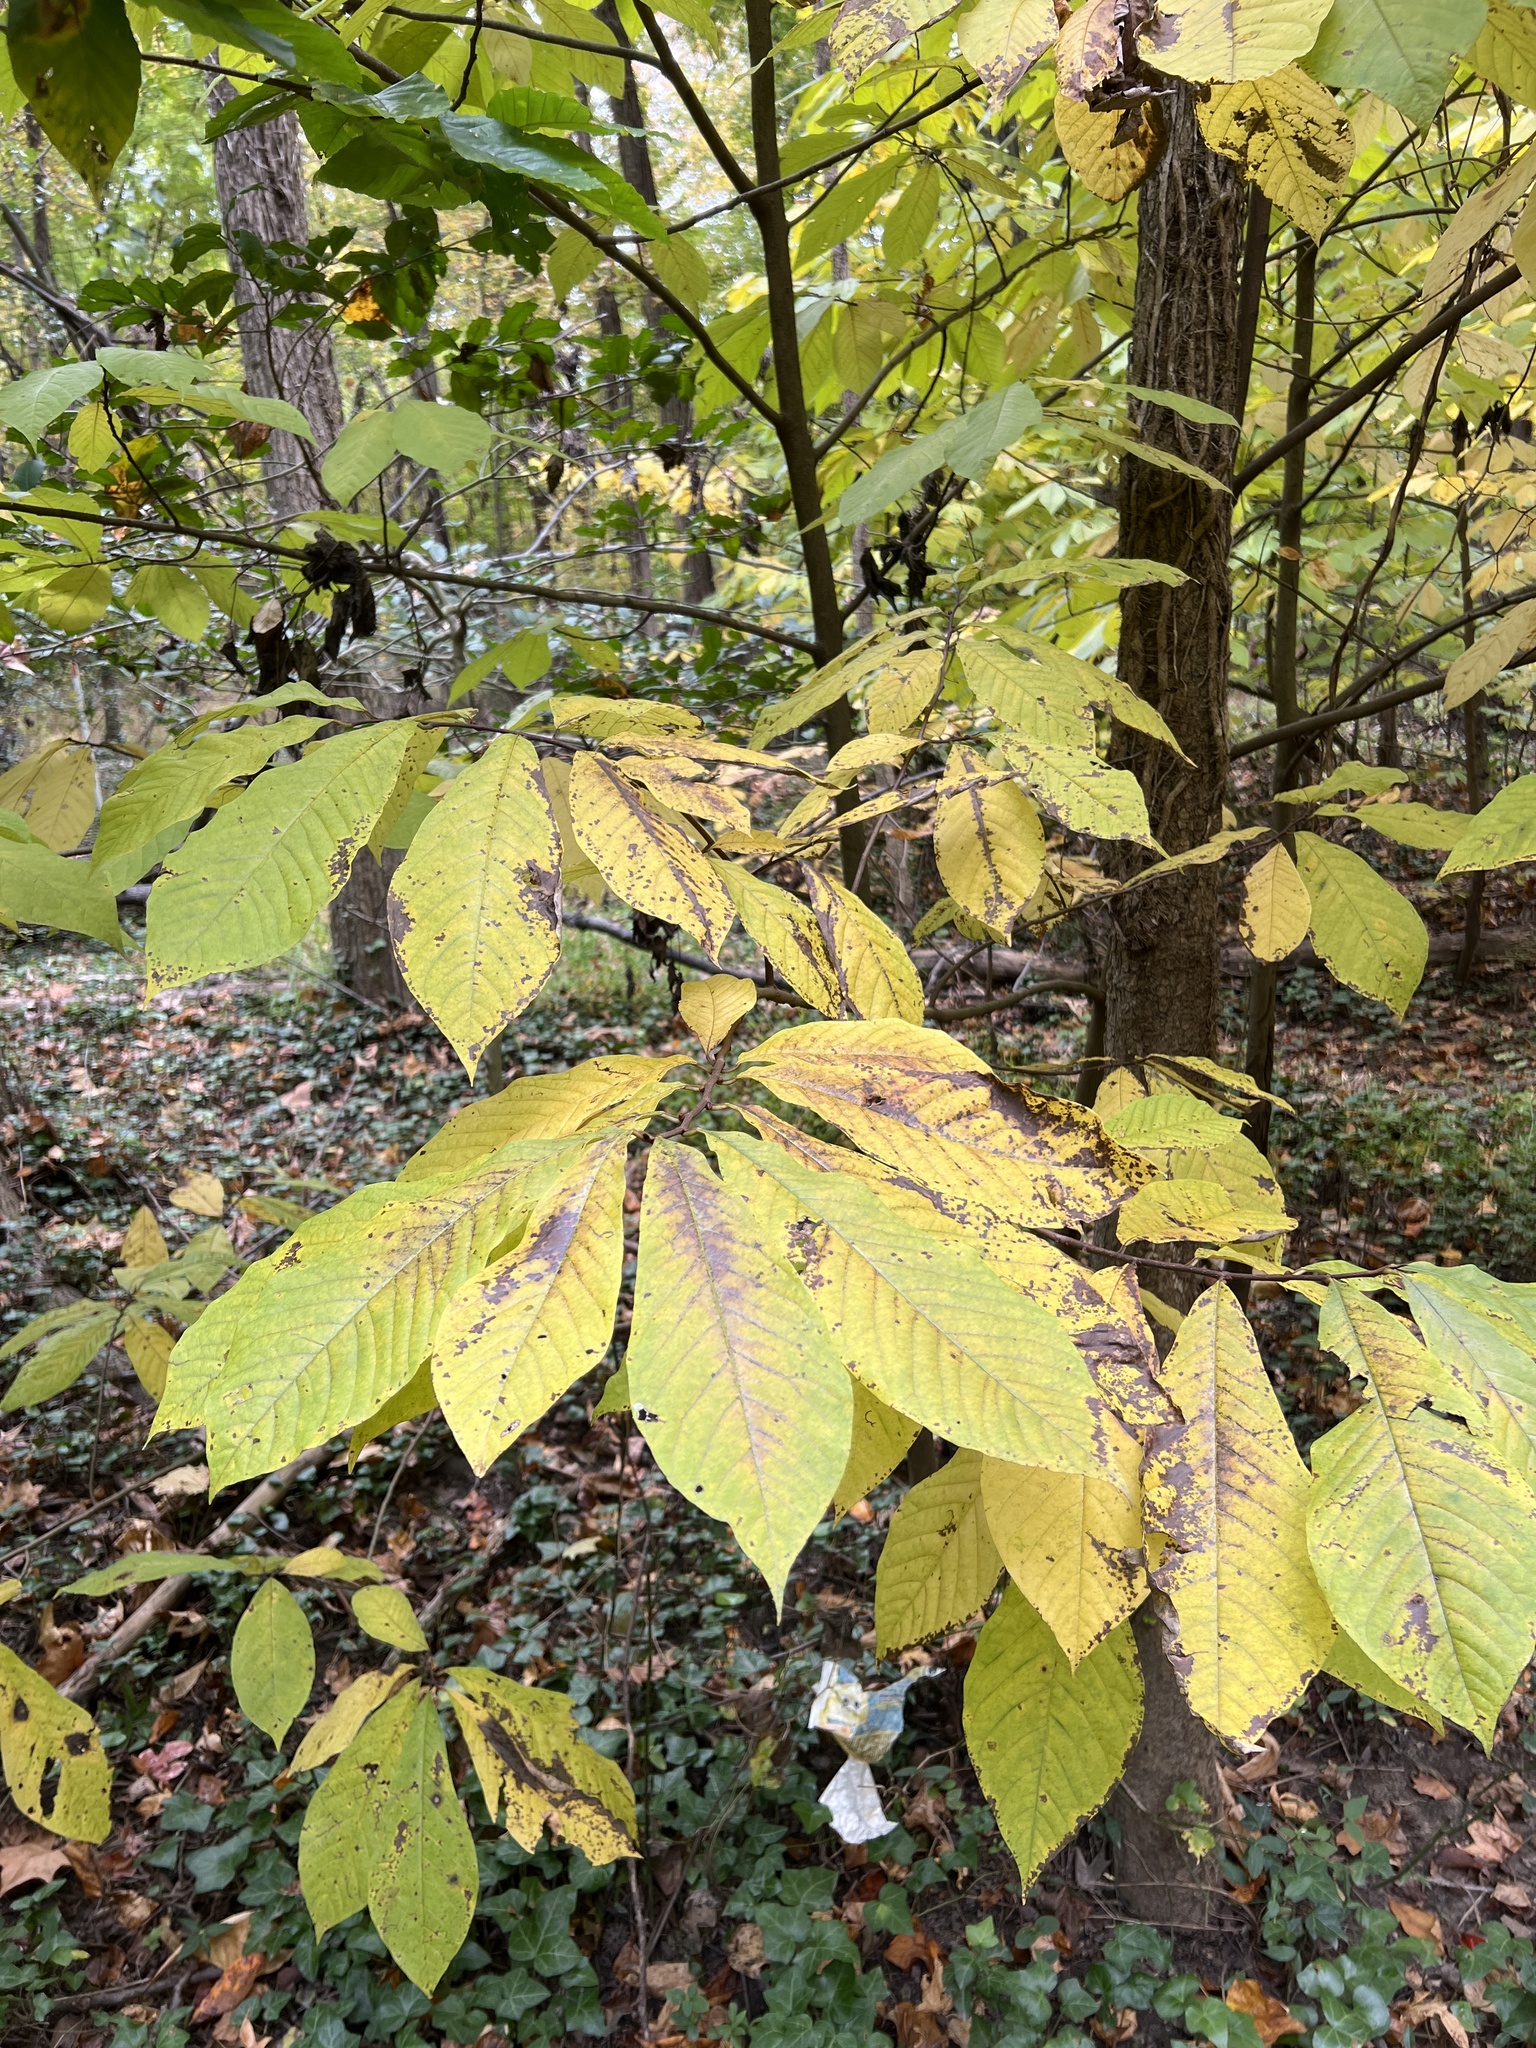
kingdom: Plantae
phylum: Tracheophyta
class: Magnoliopsida
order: Magnoliales
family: Annonaceae
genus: Asimina
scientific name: Asimina triloba
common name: Dog-banana
